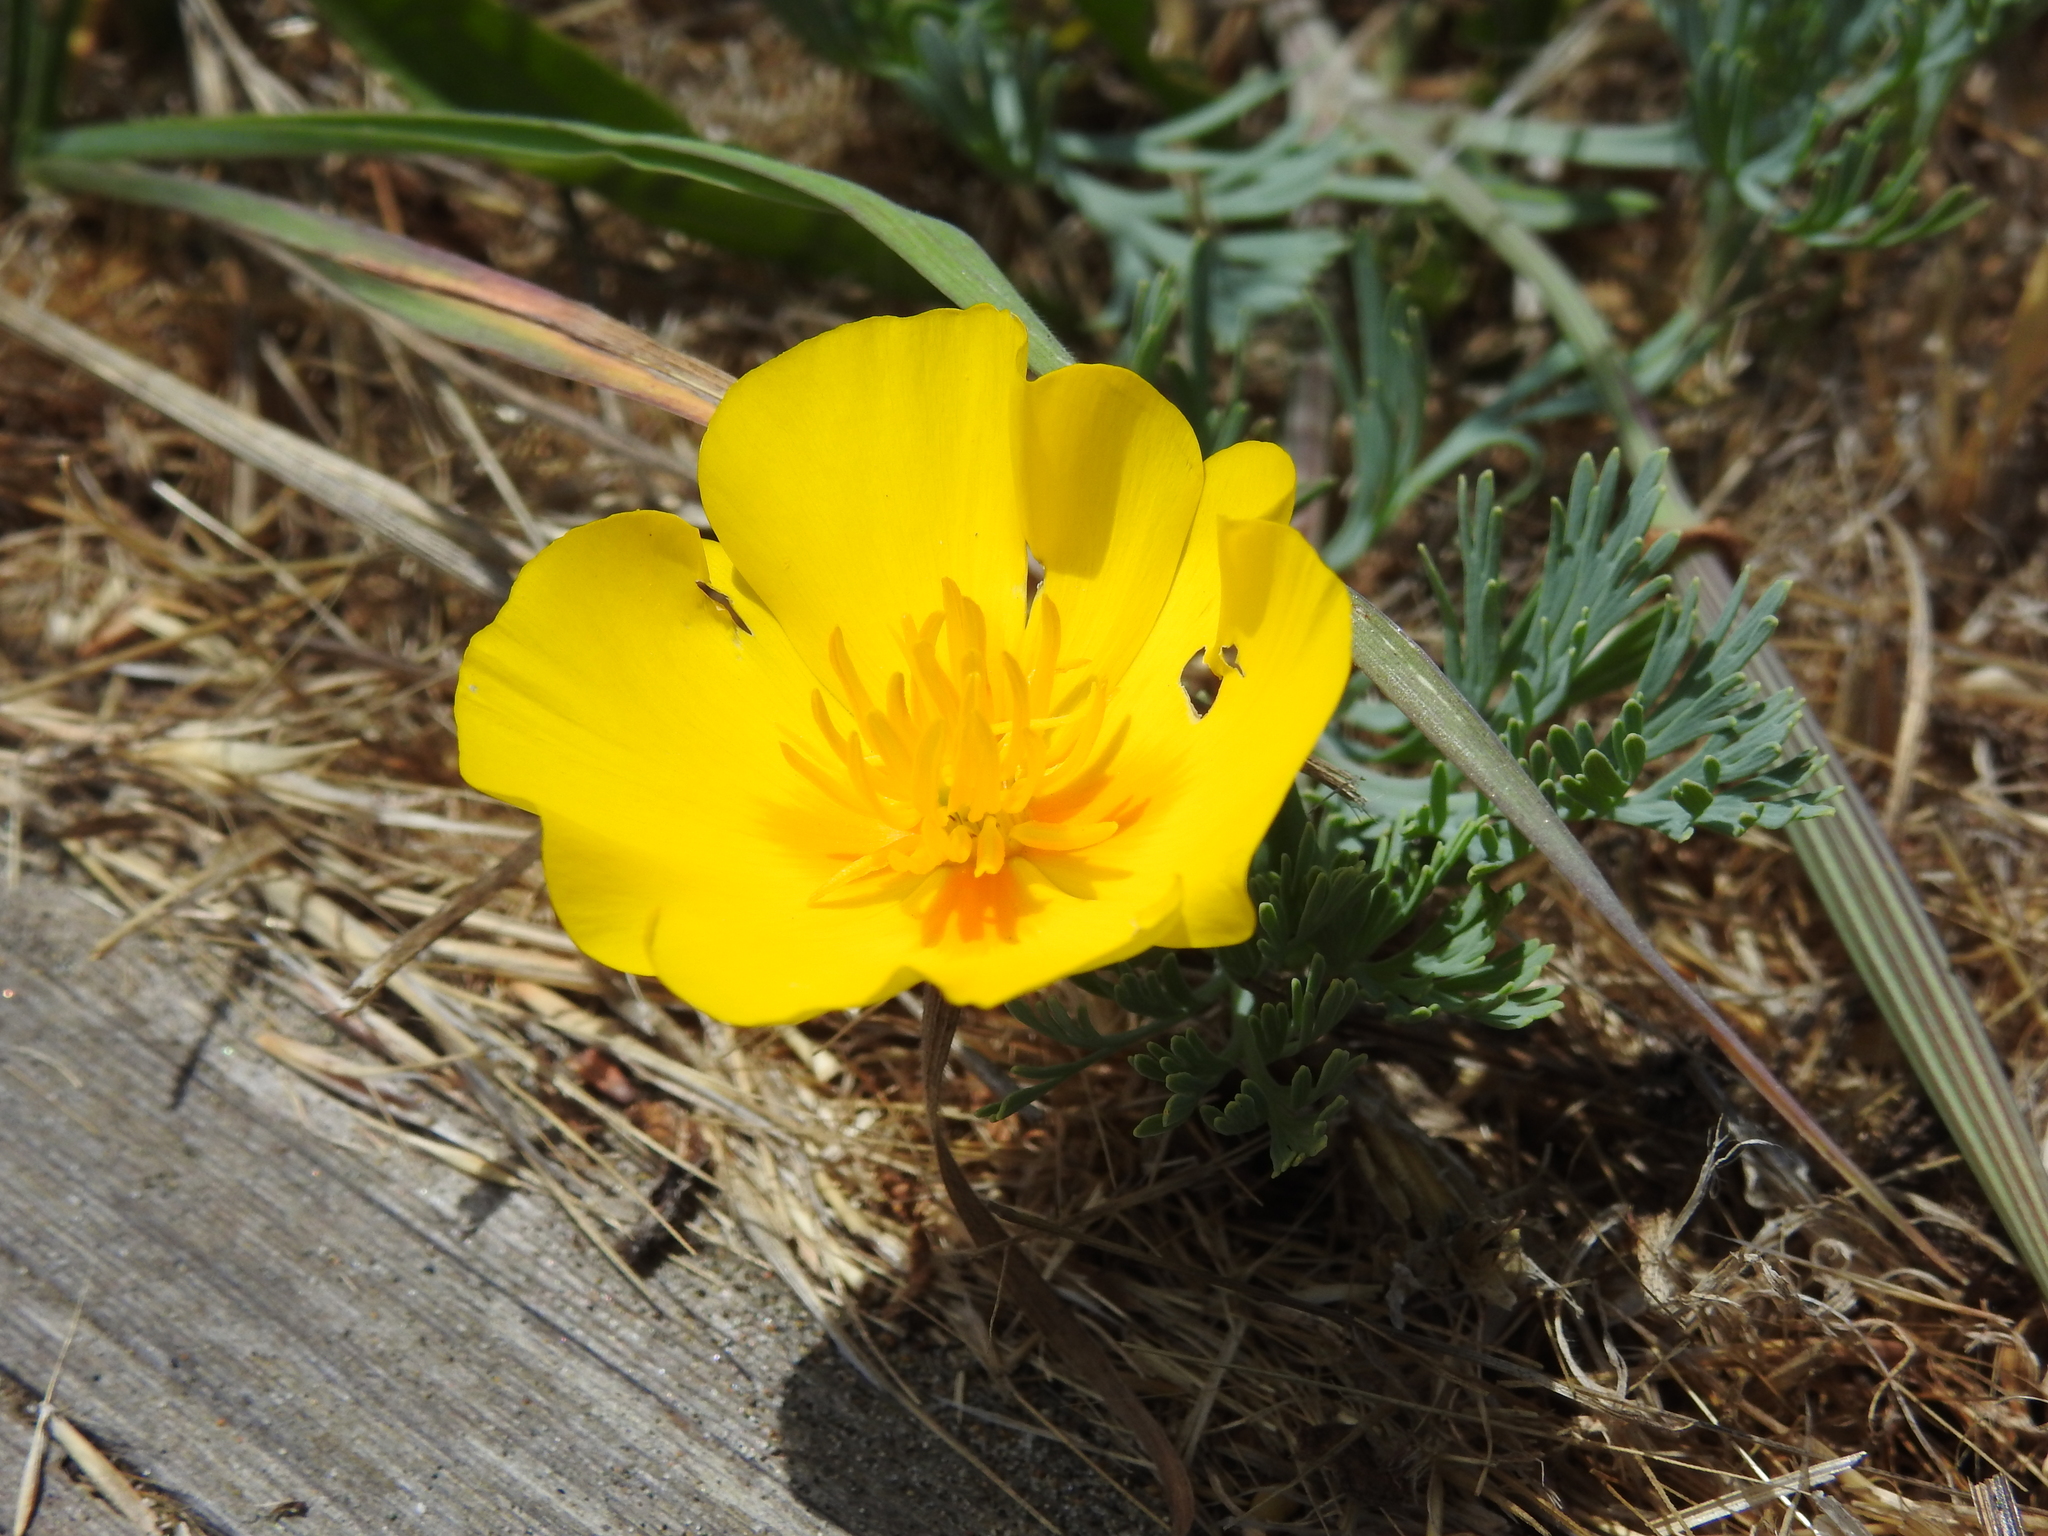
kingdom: Plantae
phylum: Tracheophyta
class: Magnoliopsida
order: Ranunculales
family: Papaveraceae
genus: Eschscholzia
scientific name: Eschscholzia
